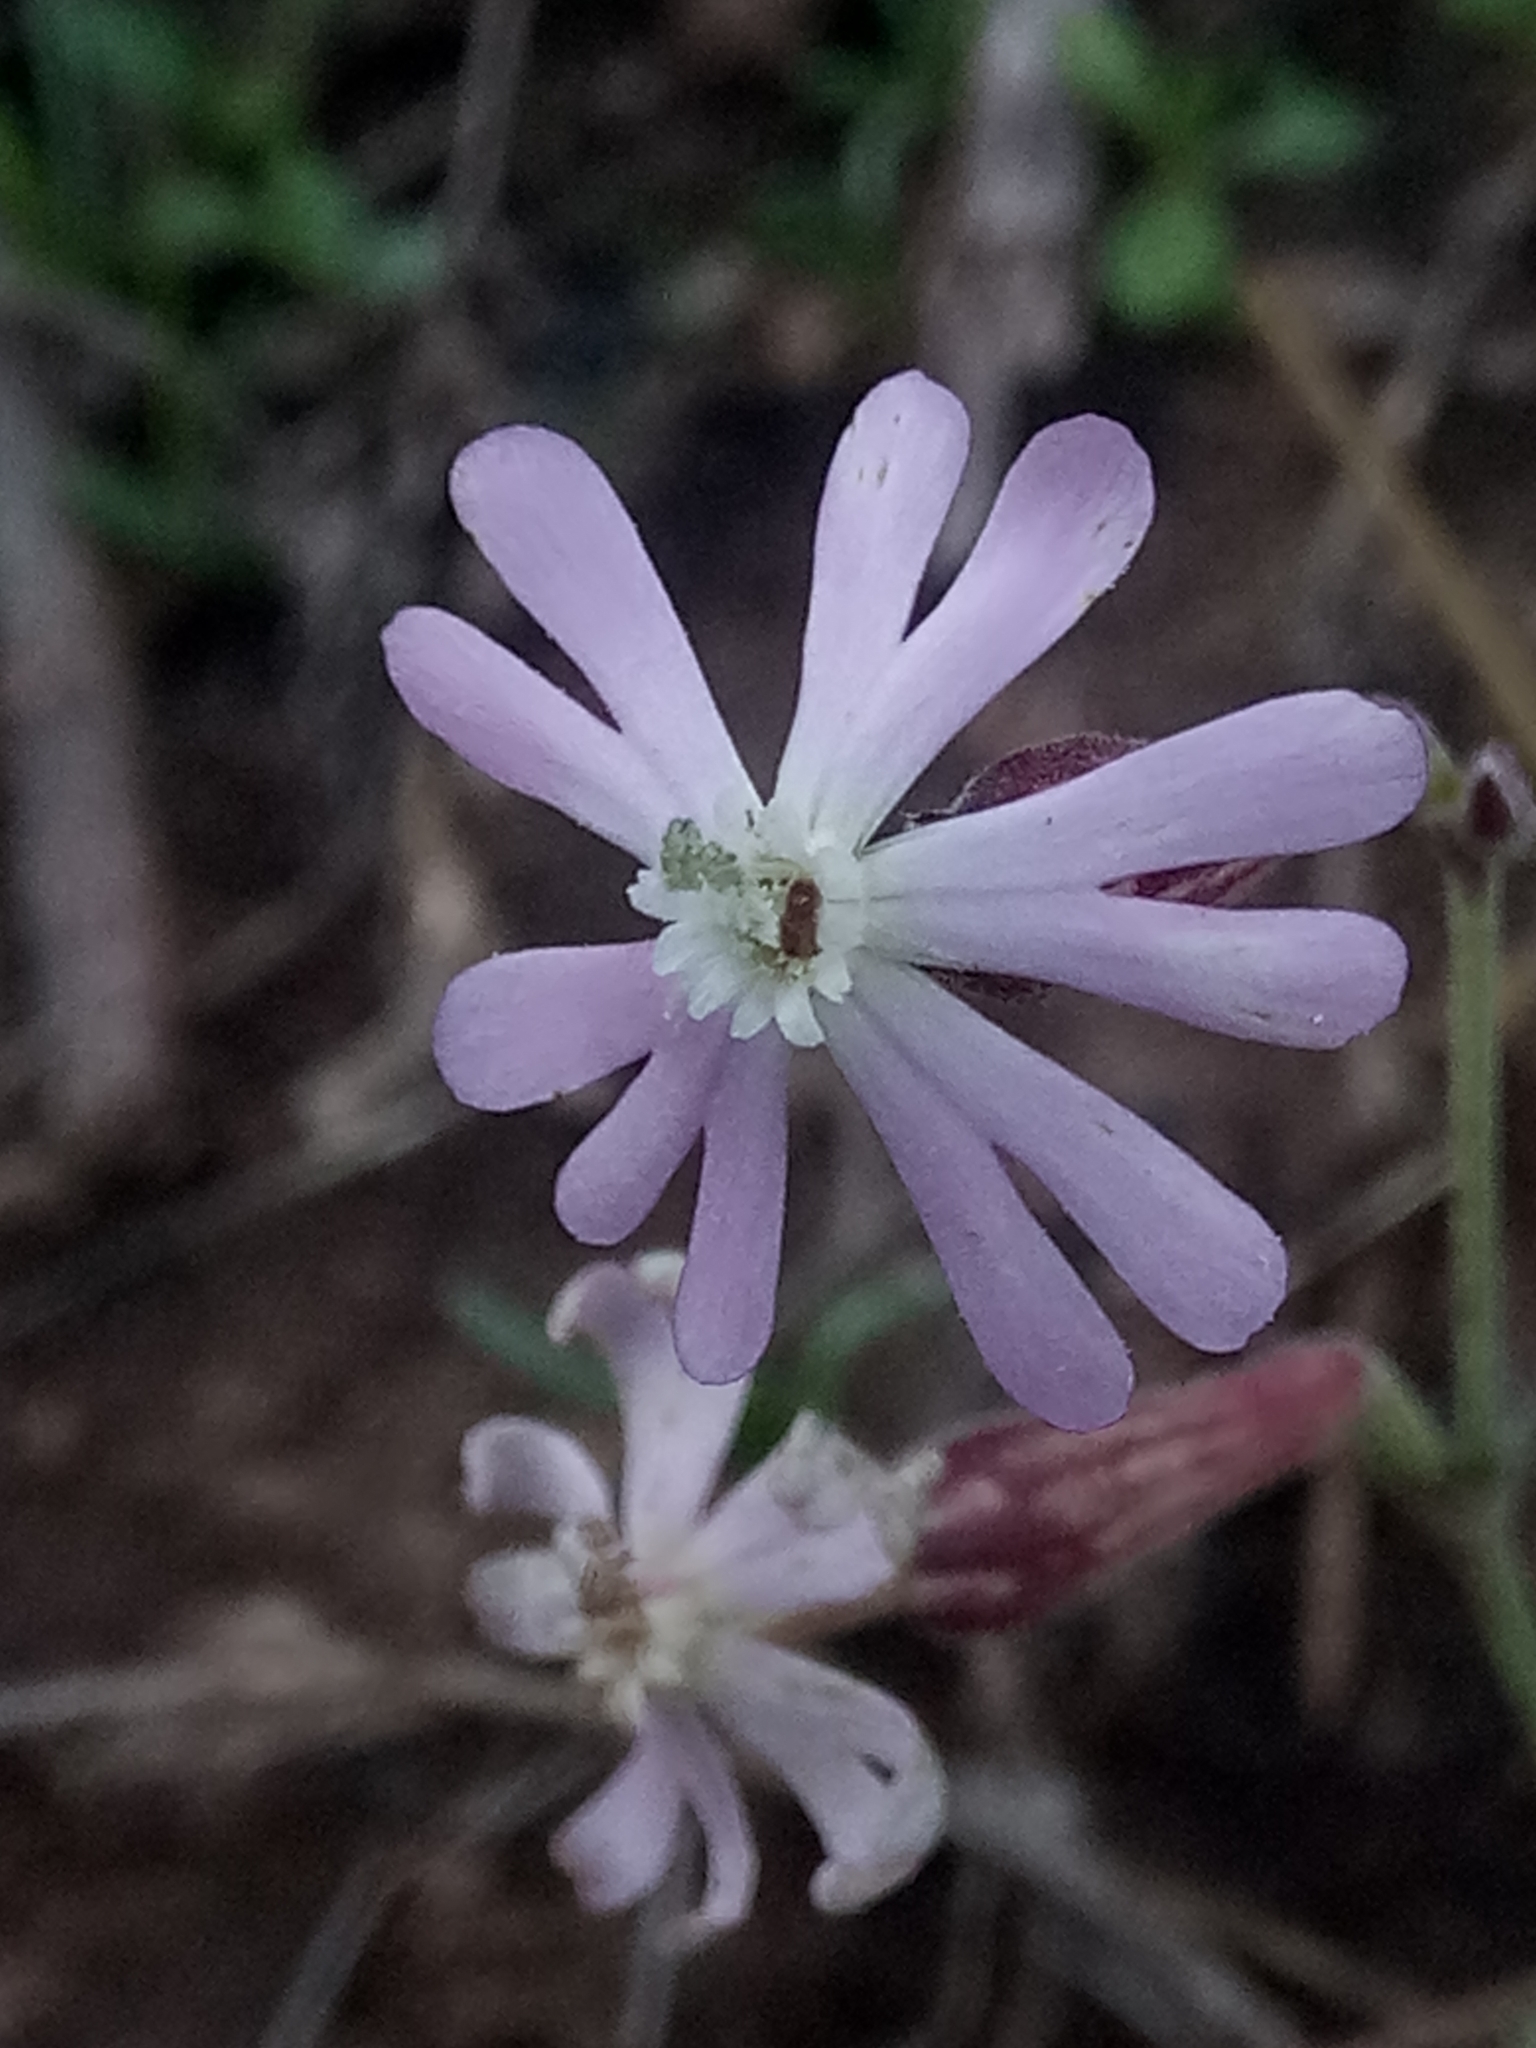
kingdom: Plantae
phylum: Tracheophyta
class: Magnoliopsida
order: Caryophyllales
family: Caryophyllaceae
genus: Silene
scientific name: Silene choulettii
